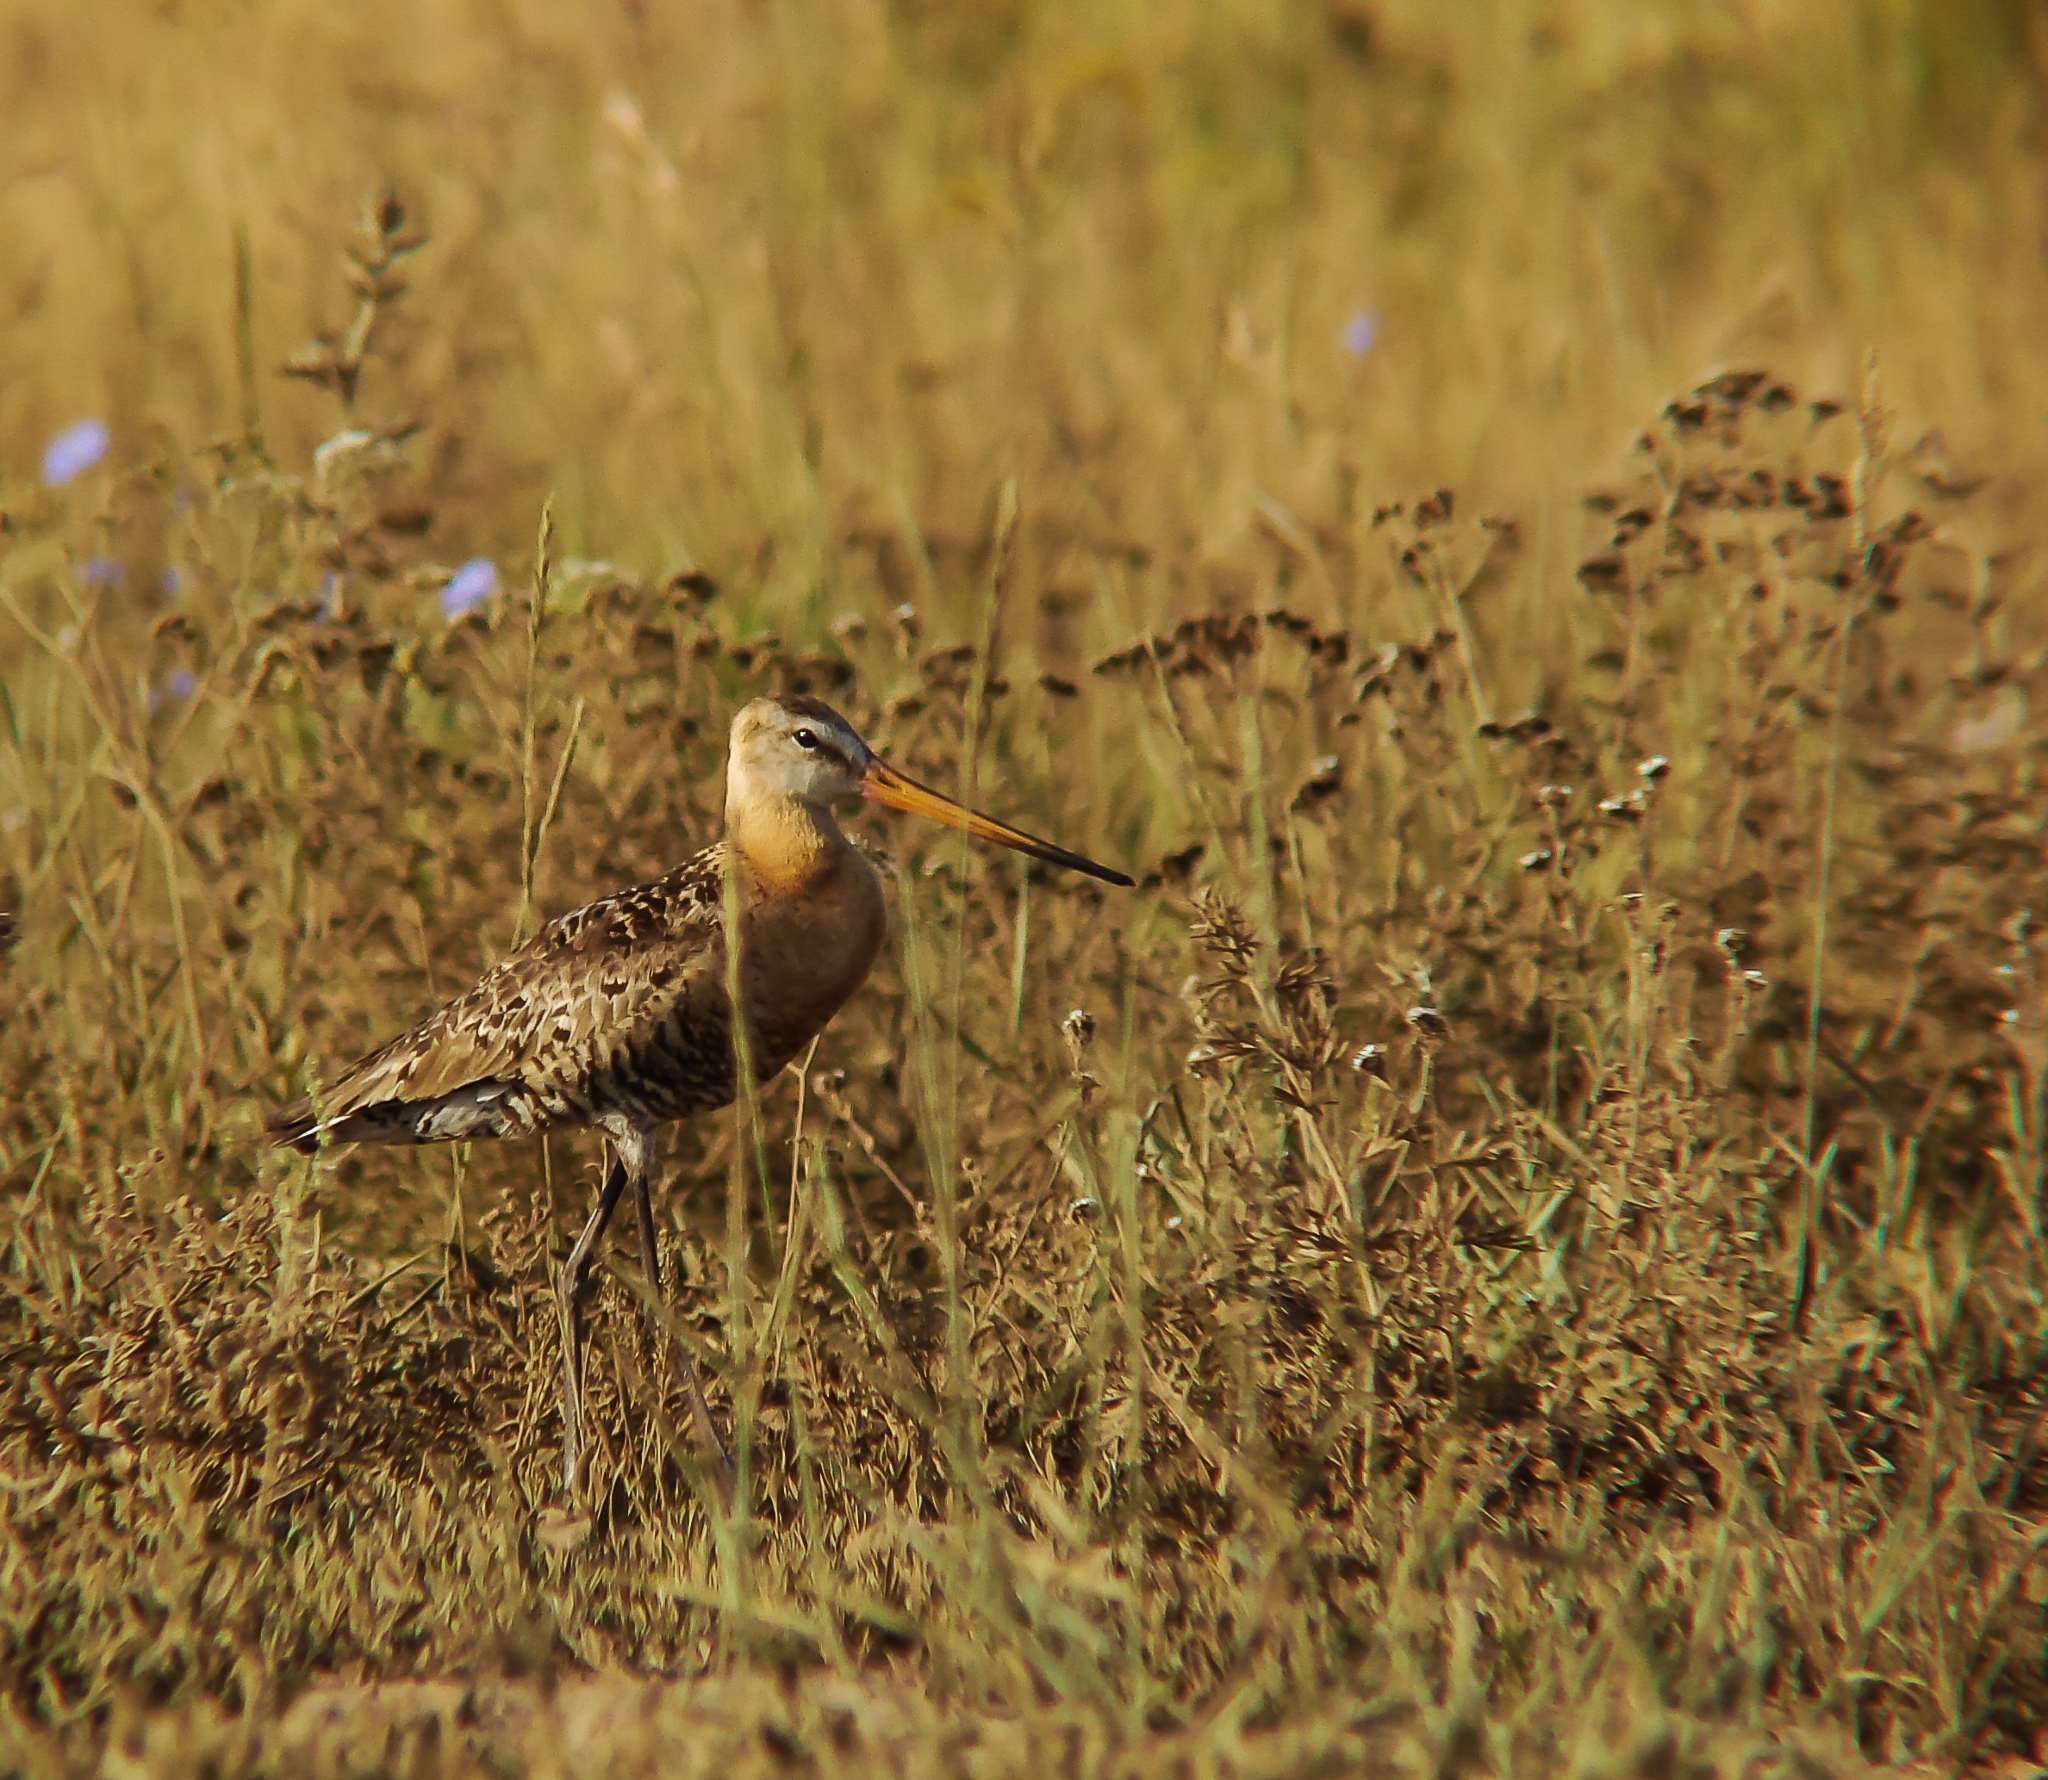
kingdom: Animalia
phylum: Chordata
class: Aves
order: Charadriiformes
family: Scolopacidae
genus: Limosa
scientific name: Limosa limosa
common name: Black-tailed godwit
